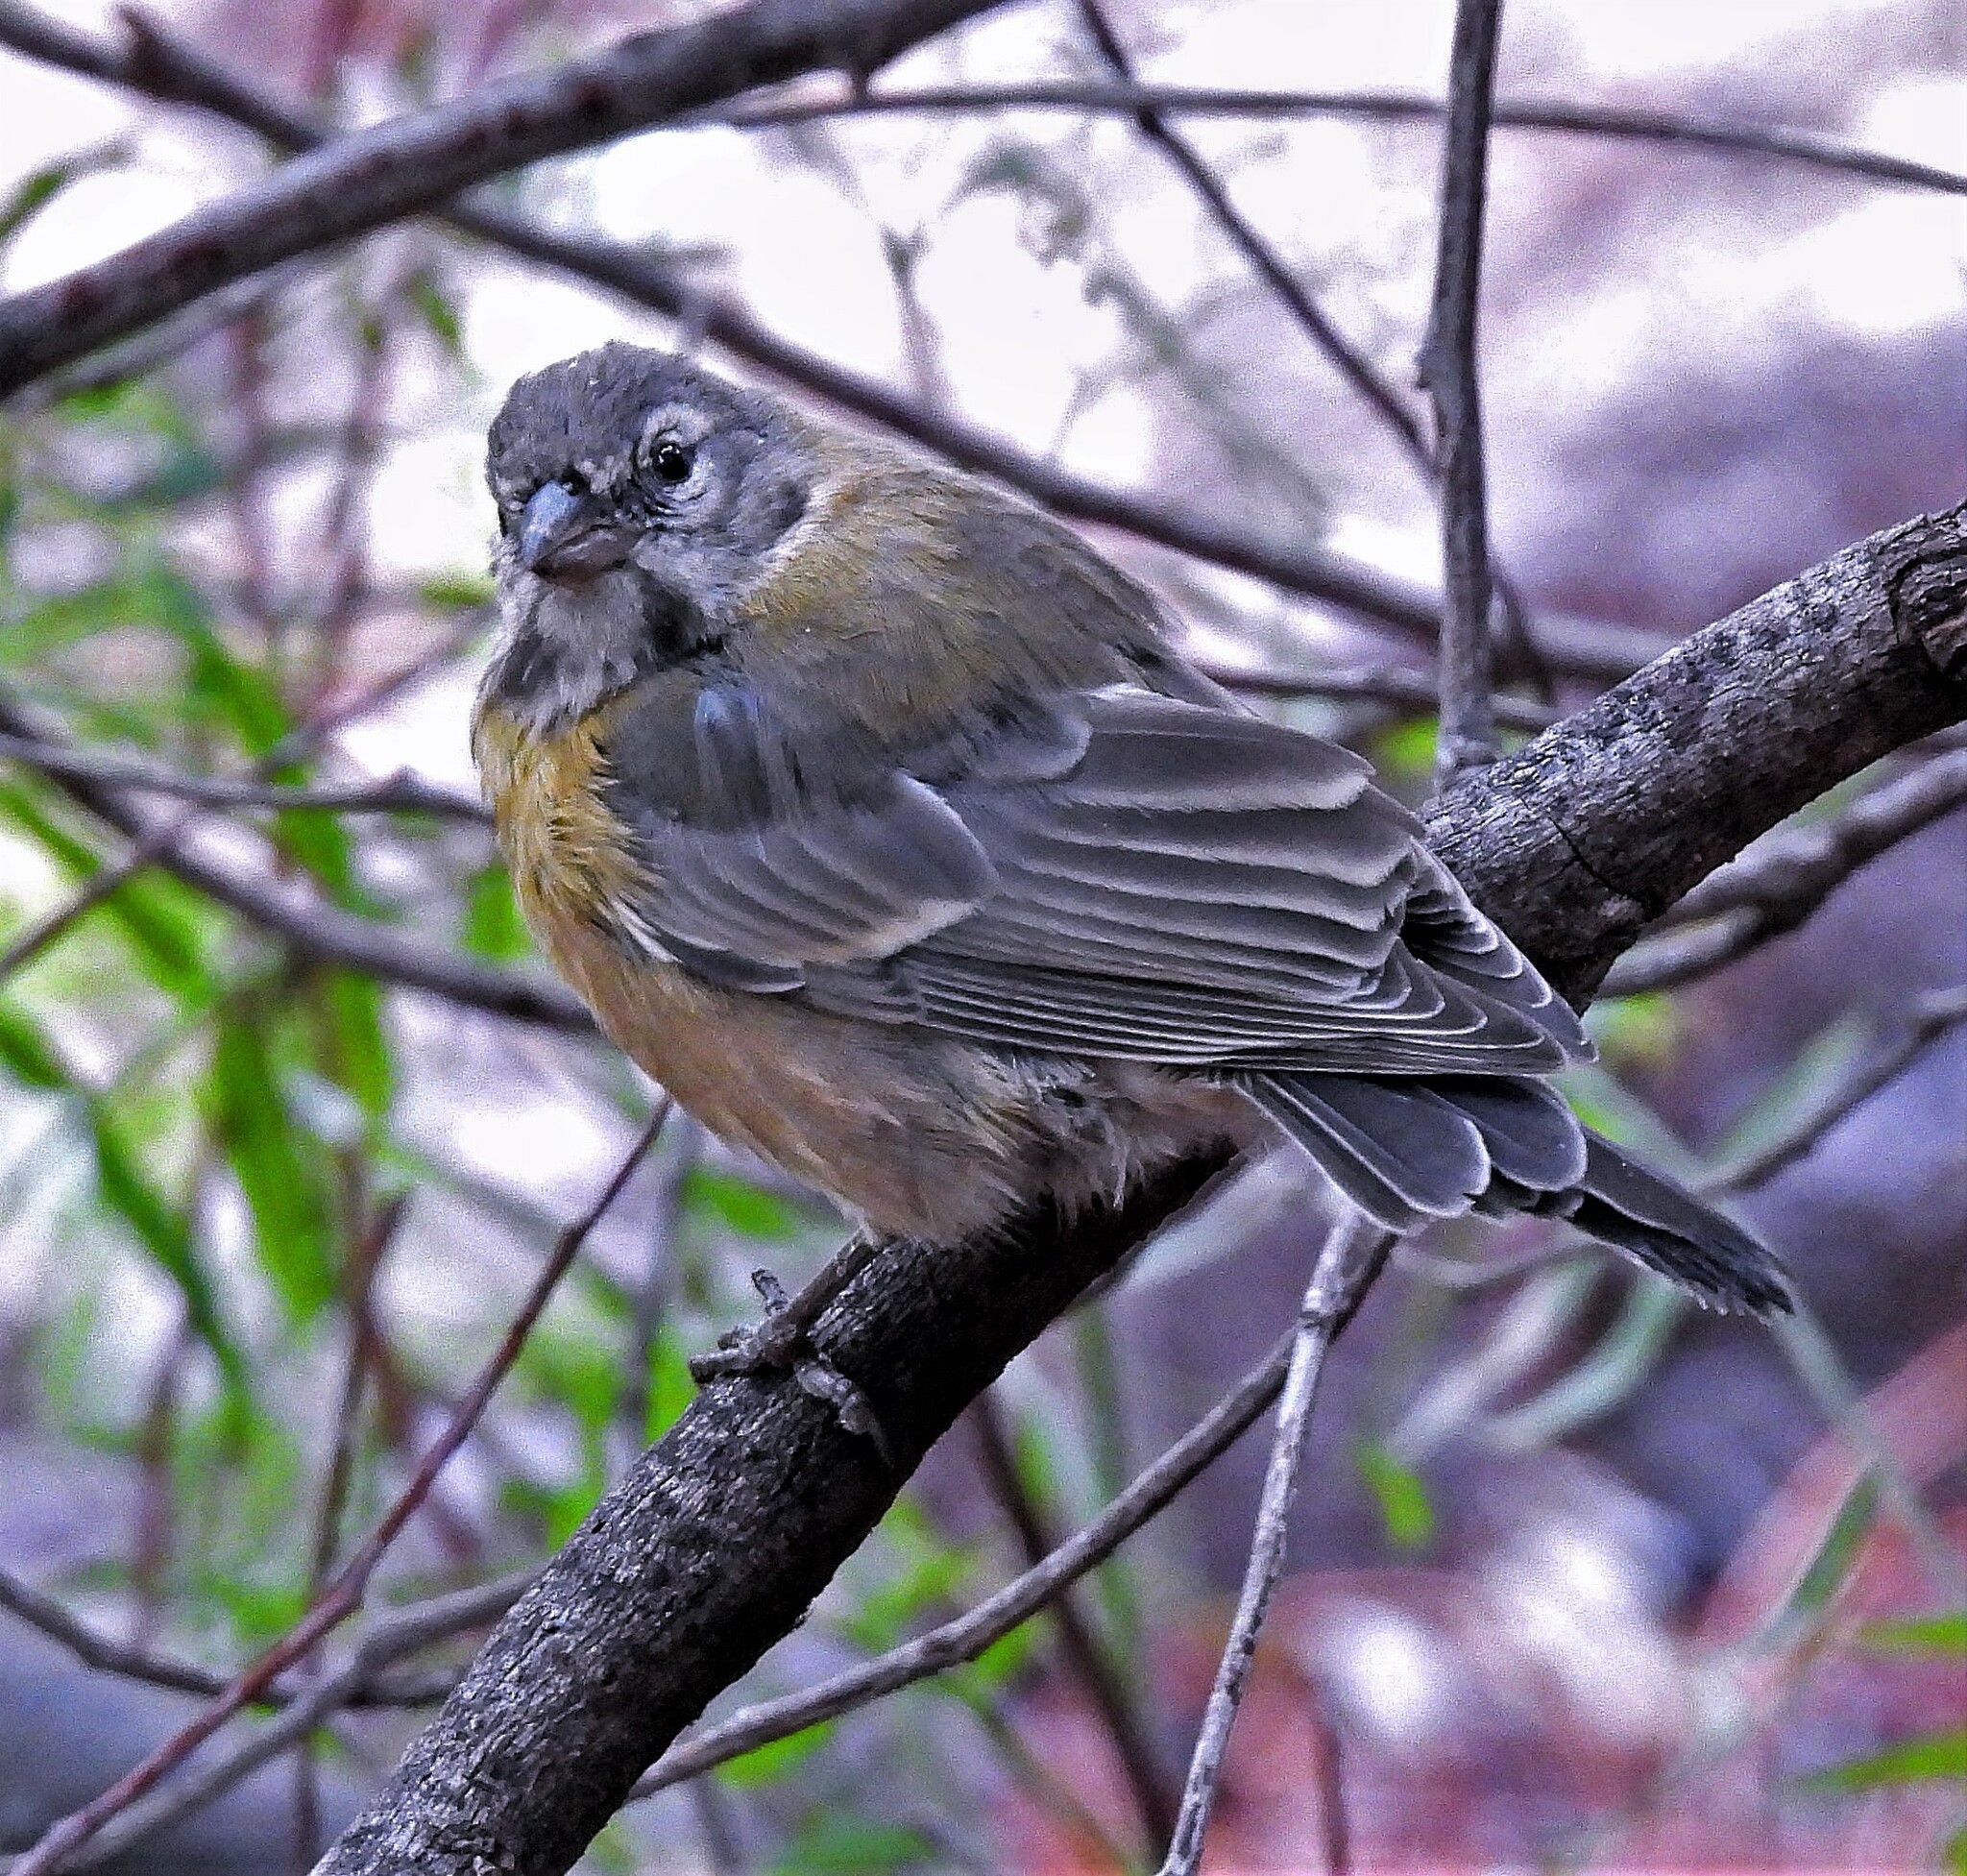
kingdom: Animalia
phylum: Chordata
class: Aves
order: Passeriformes
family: Thraupidae
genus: Phrygilus
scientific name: Phrygilus gayi
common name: Grey-hooded sierra finch
